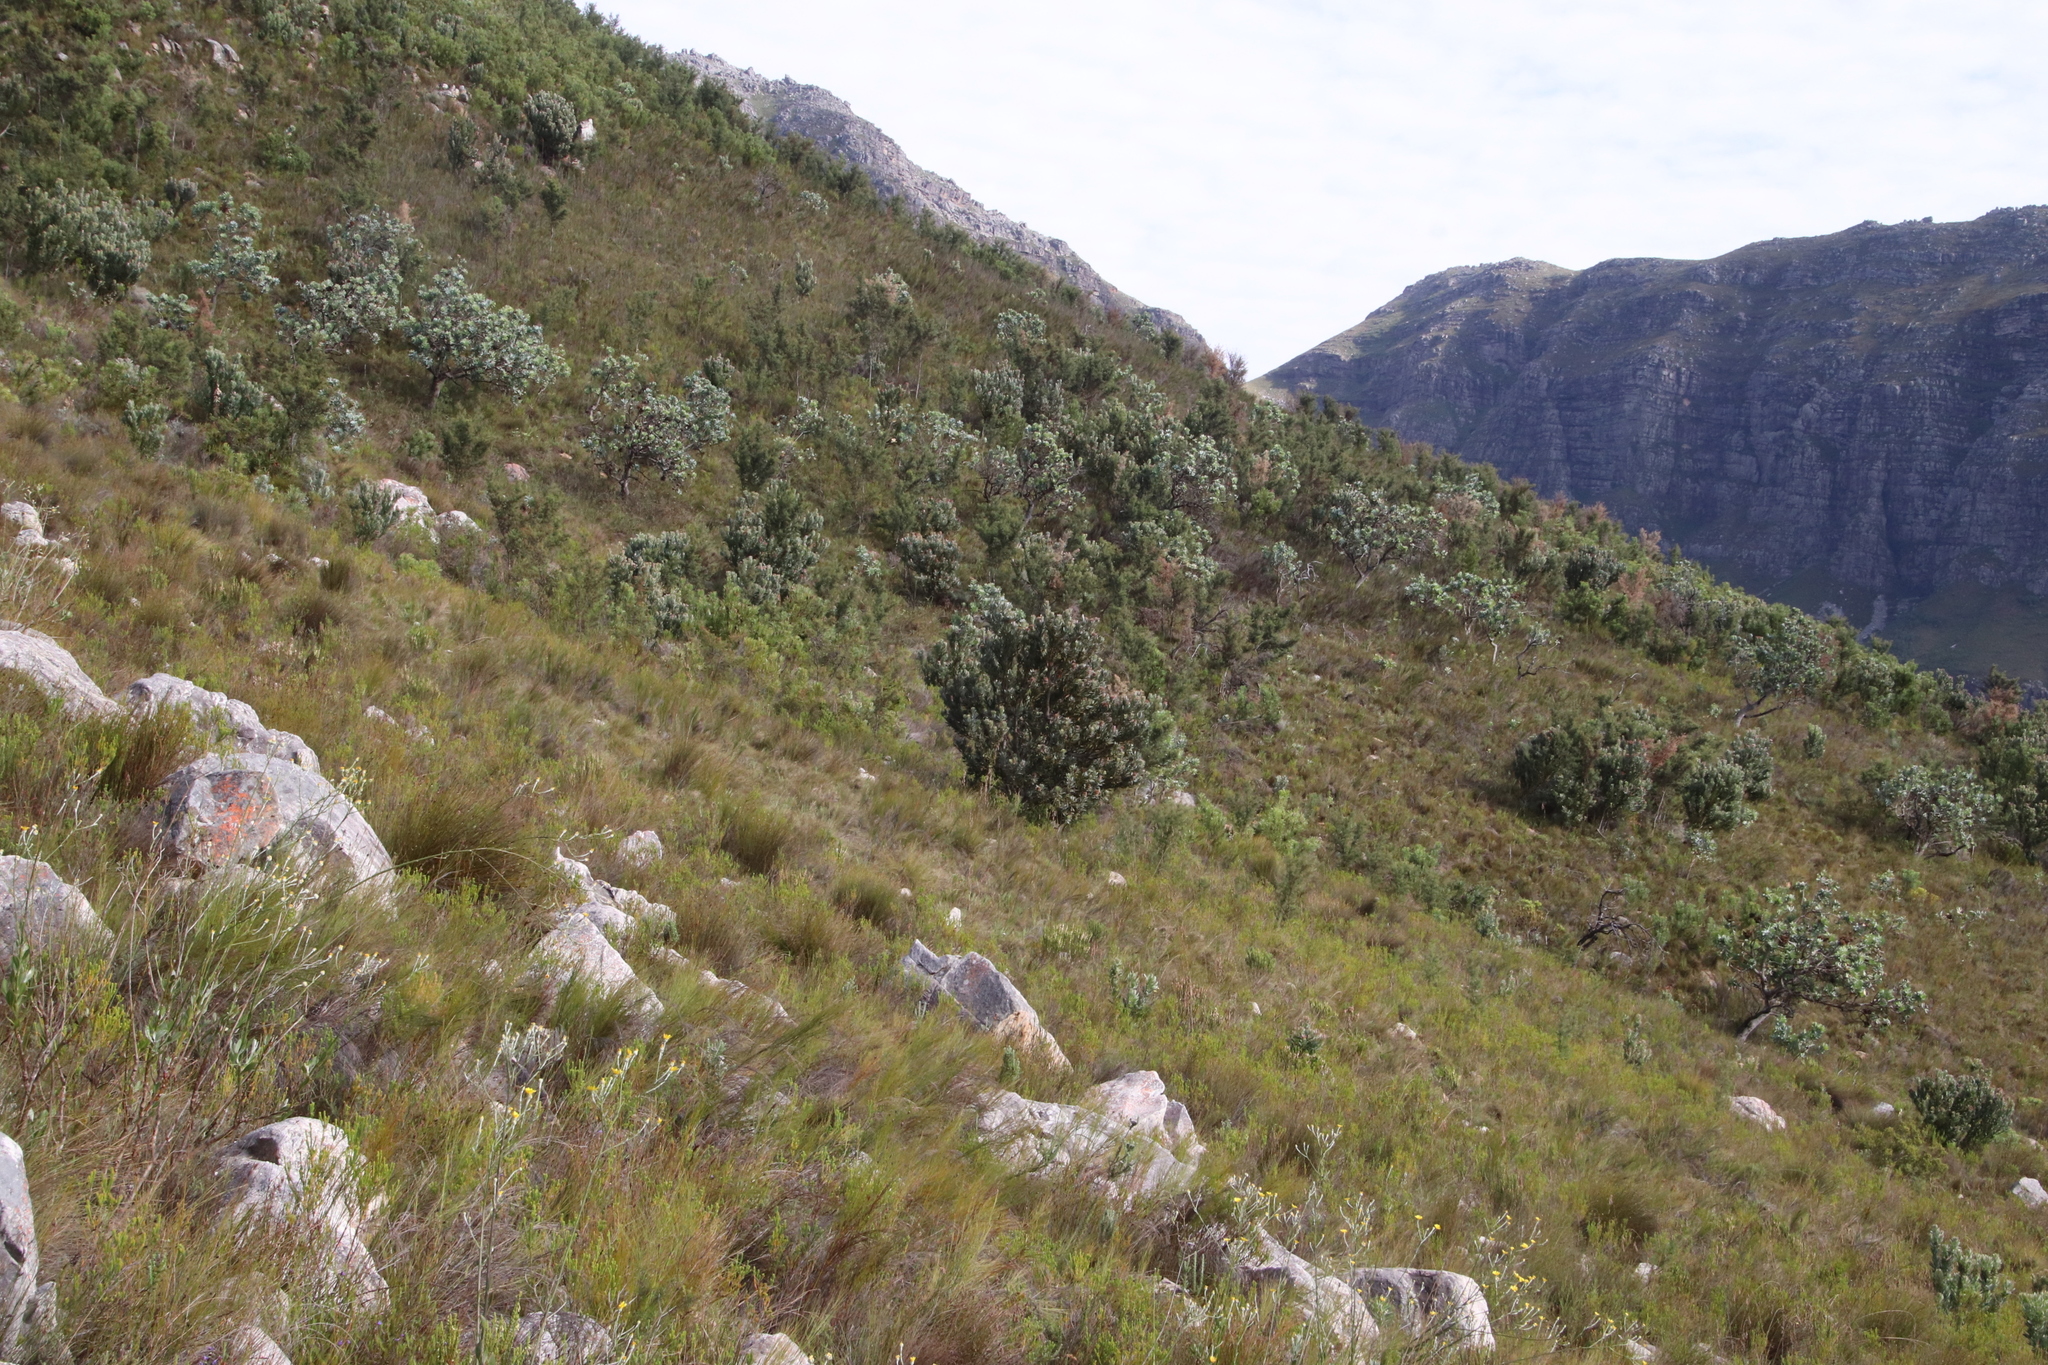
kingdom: Plantae
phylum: Tracheophyta
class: Magnoliopsida
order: Proteales
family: Proteaceae
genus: Protea
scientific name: Protea laurifolia
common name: Grey-leaf sugarbsh
